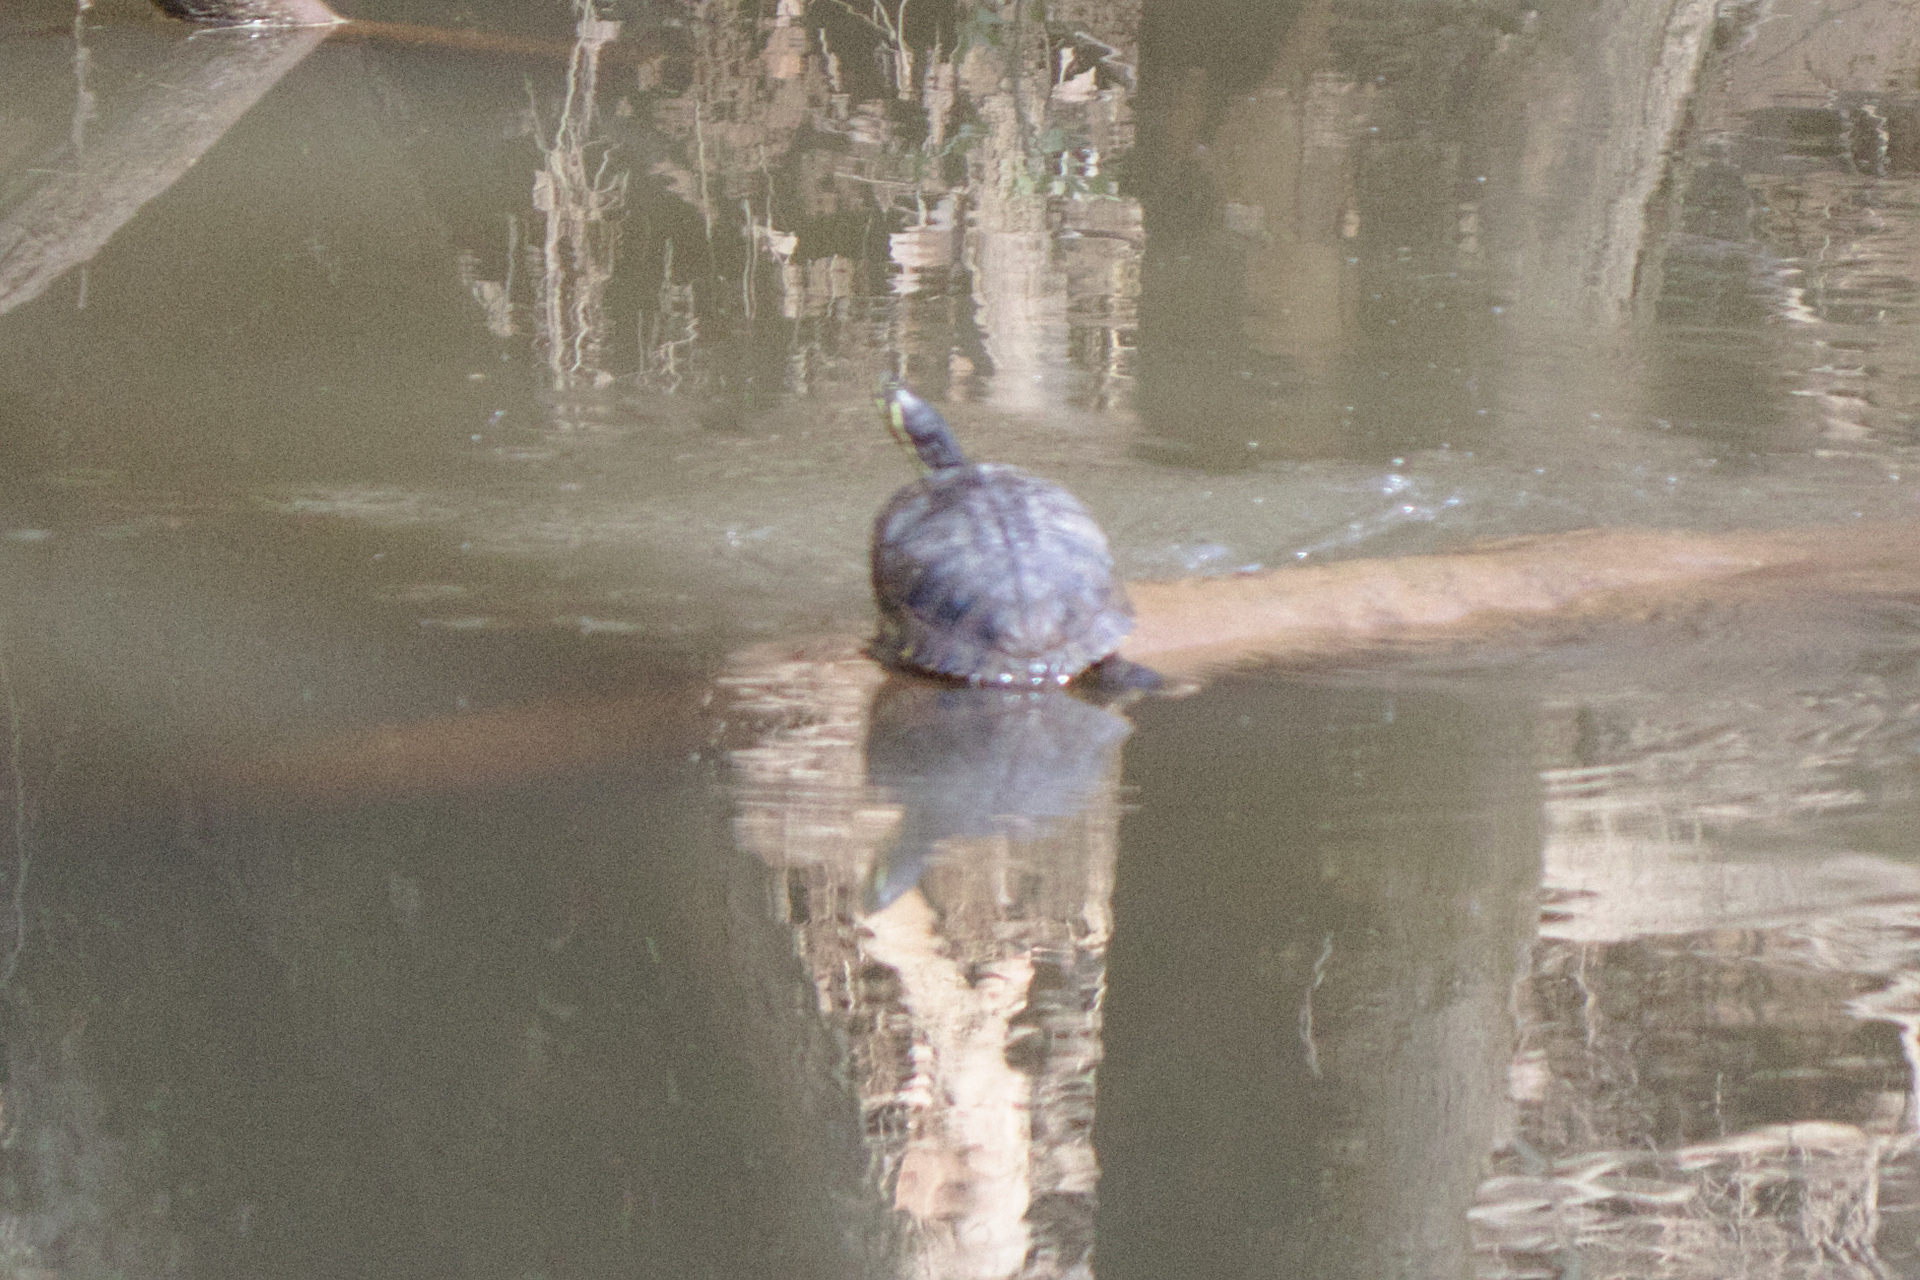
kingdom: Animalia
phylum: Chordata
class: Testudines
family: Emydidae
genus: Trachemys
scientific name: Trachemys scripta
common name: Slider
